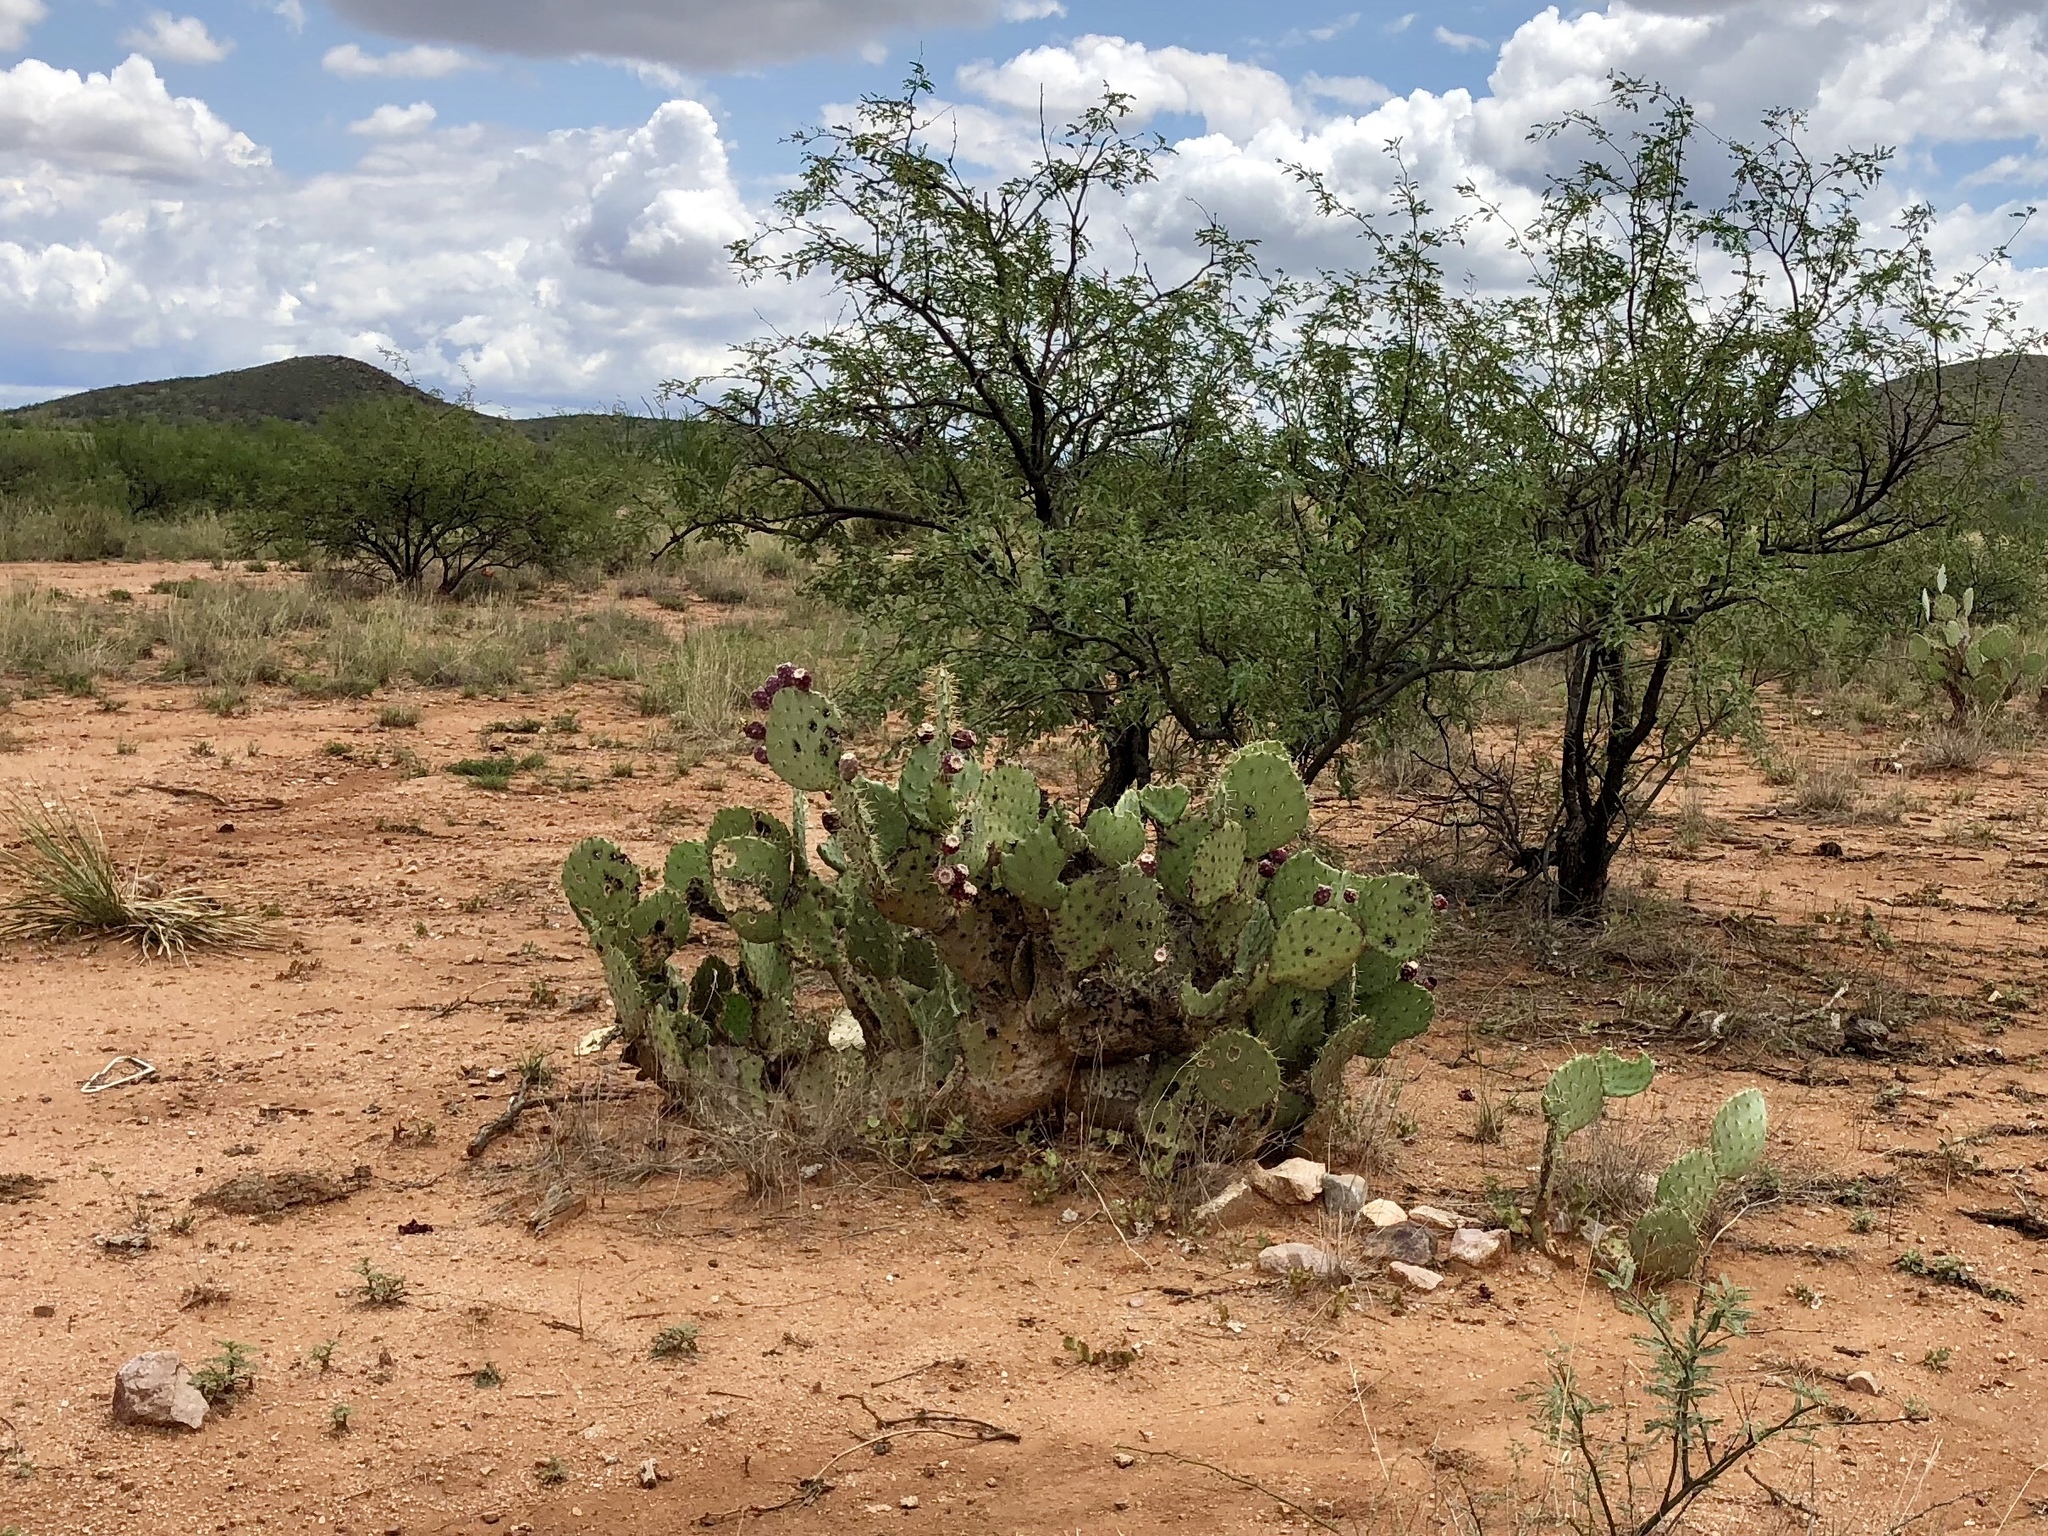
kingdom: Plantae
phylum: Tracheophyta
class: Magnoliopsida
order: Caryophyllales
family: Cactaceae
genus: Opuntia
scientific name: Opuntia engelmannii
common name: Cactus-apple
